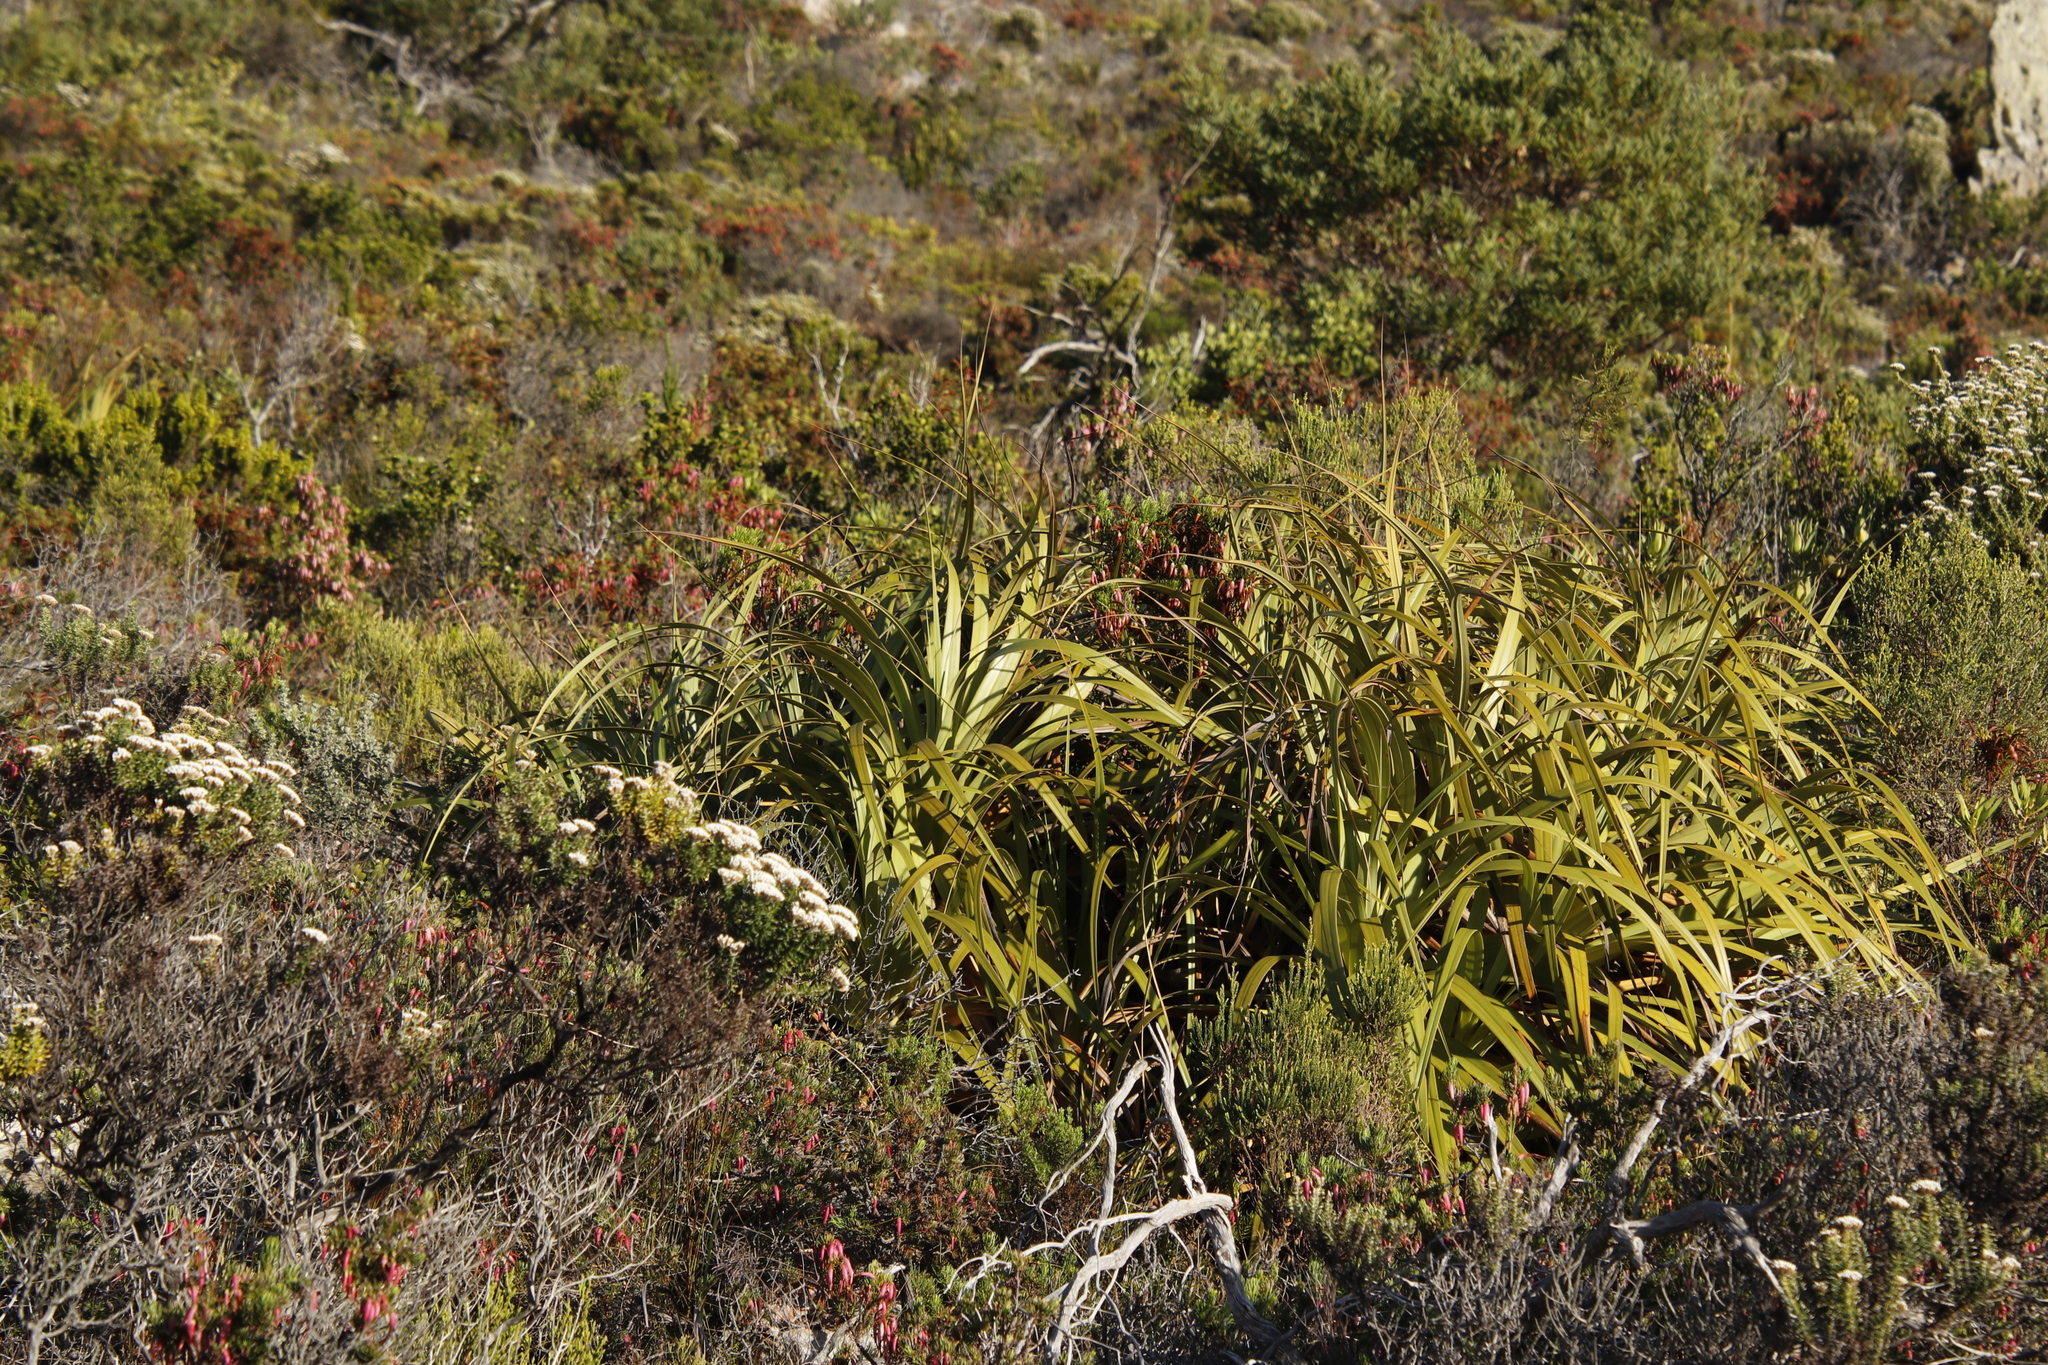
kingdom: Plantae
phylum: Tracheophyta
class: Liliopsida
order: Poales
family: Cyperaceae
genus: Tetraria
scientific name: Tetraria thermalis
